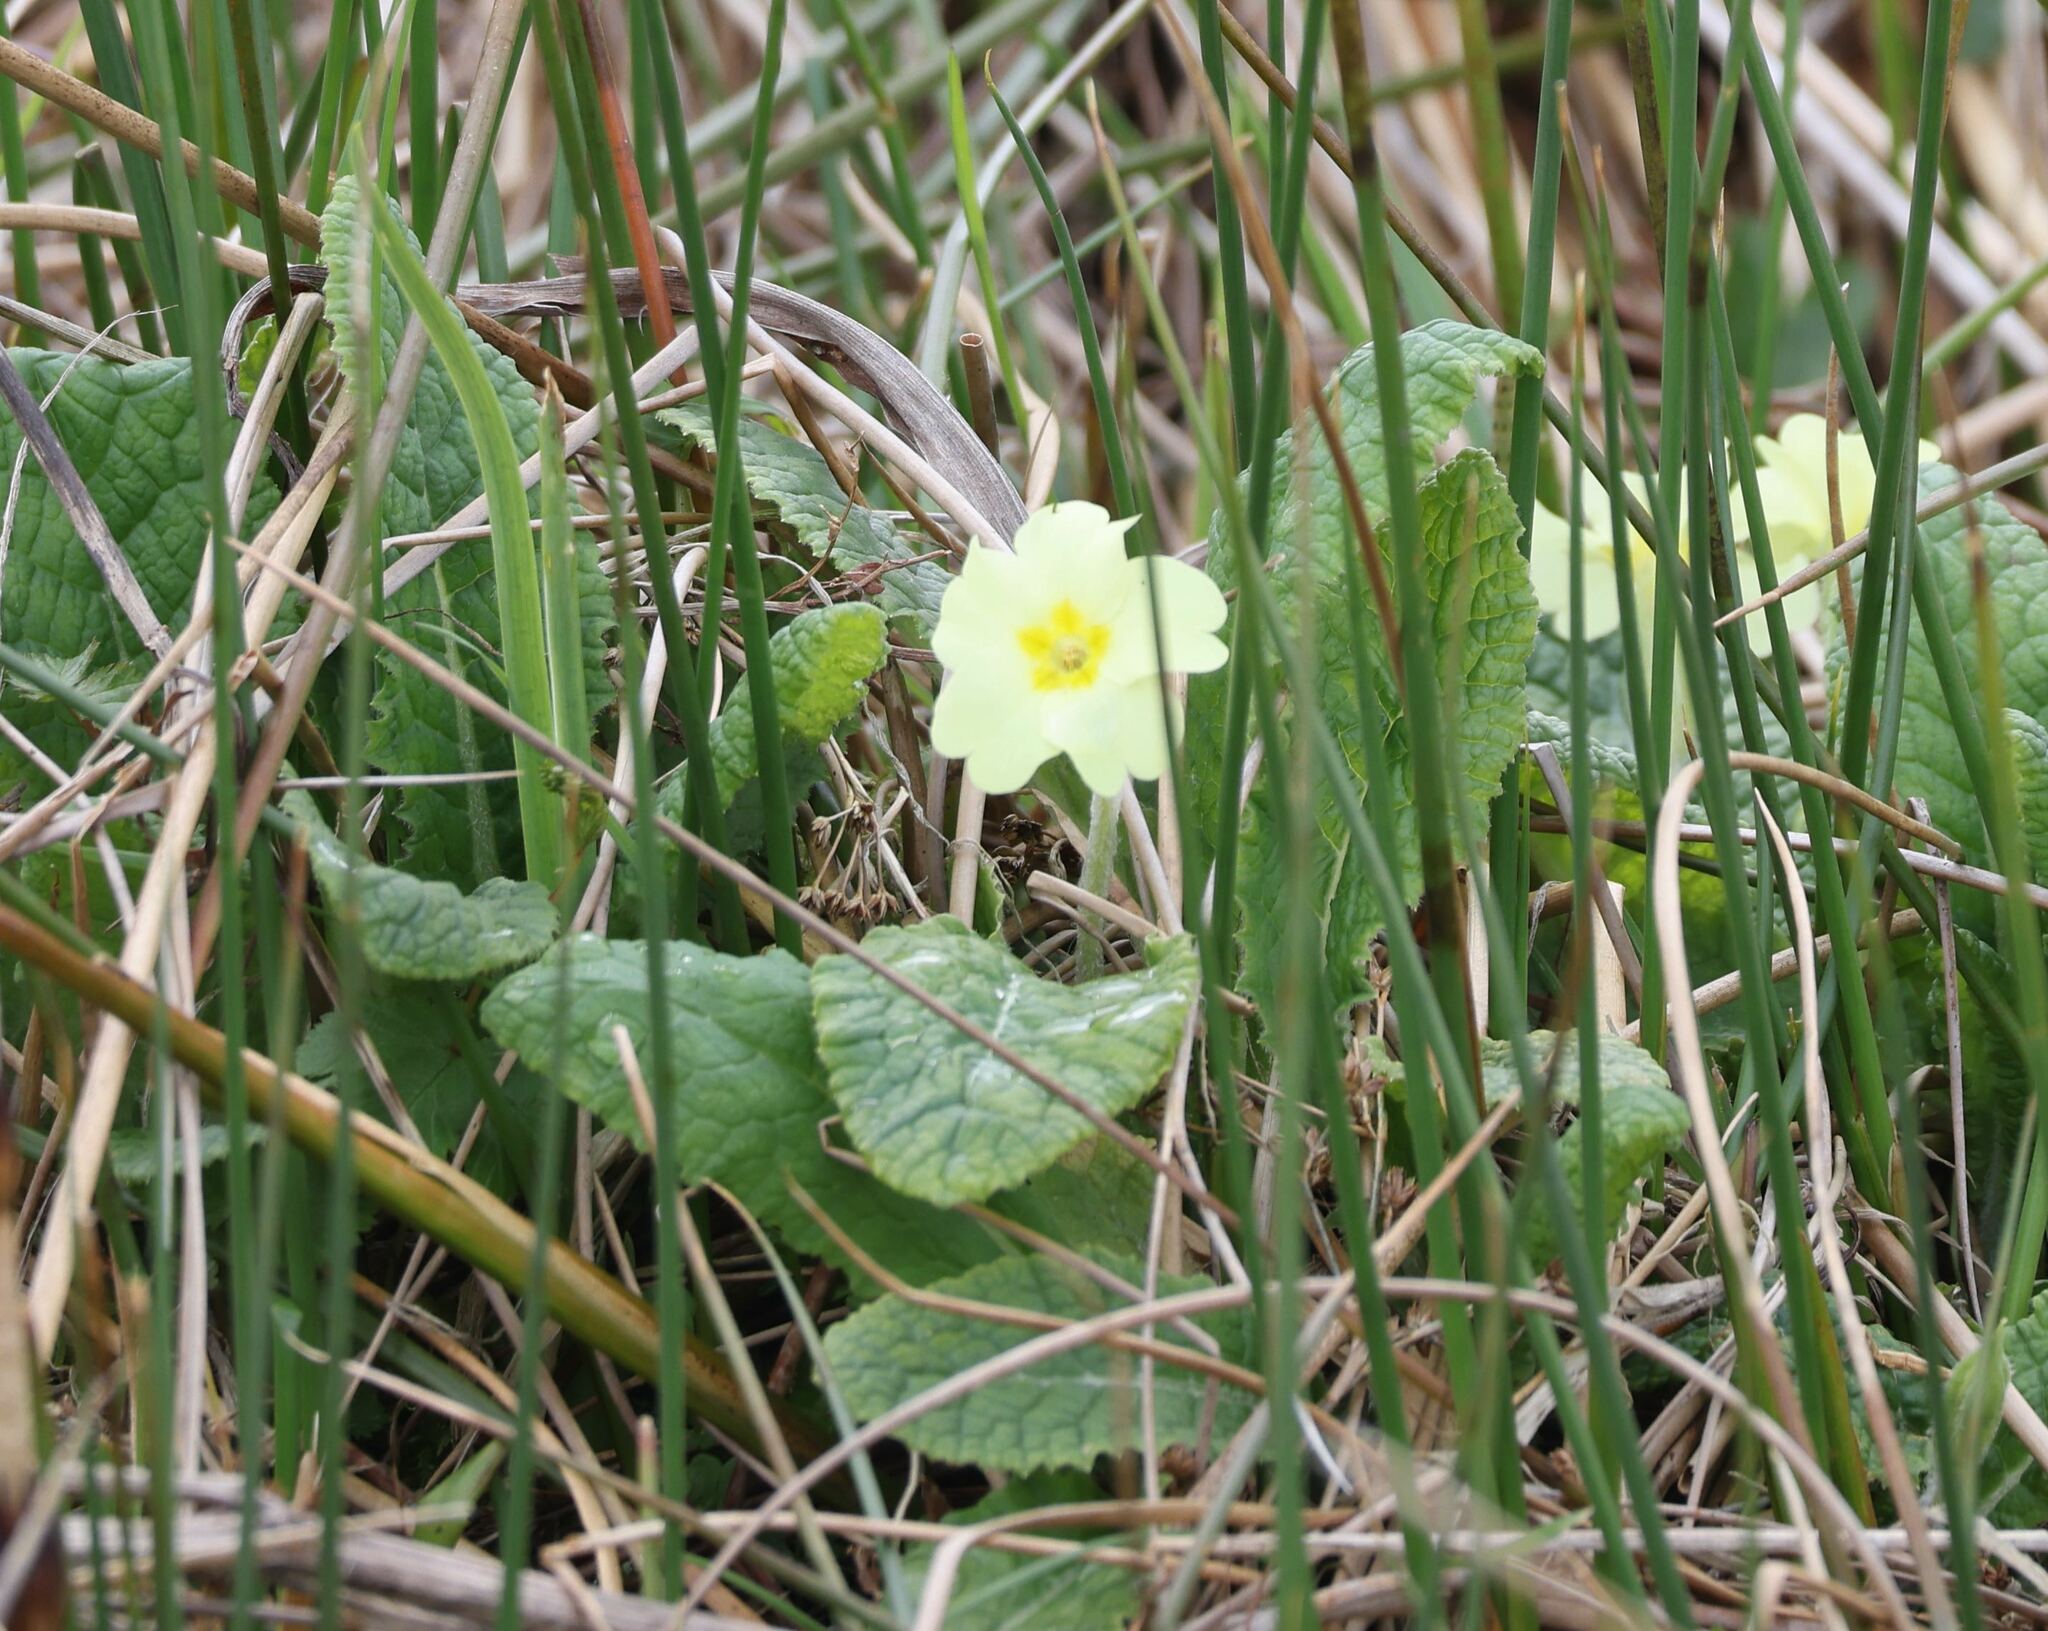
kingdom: Plantae
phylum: Tracheophyta
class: Magnoliopsida
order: Ericales
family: Primulaceae
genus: Primula
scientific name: Primula vulgaris
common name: Primrose
